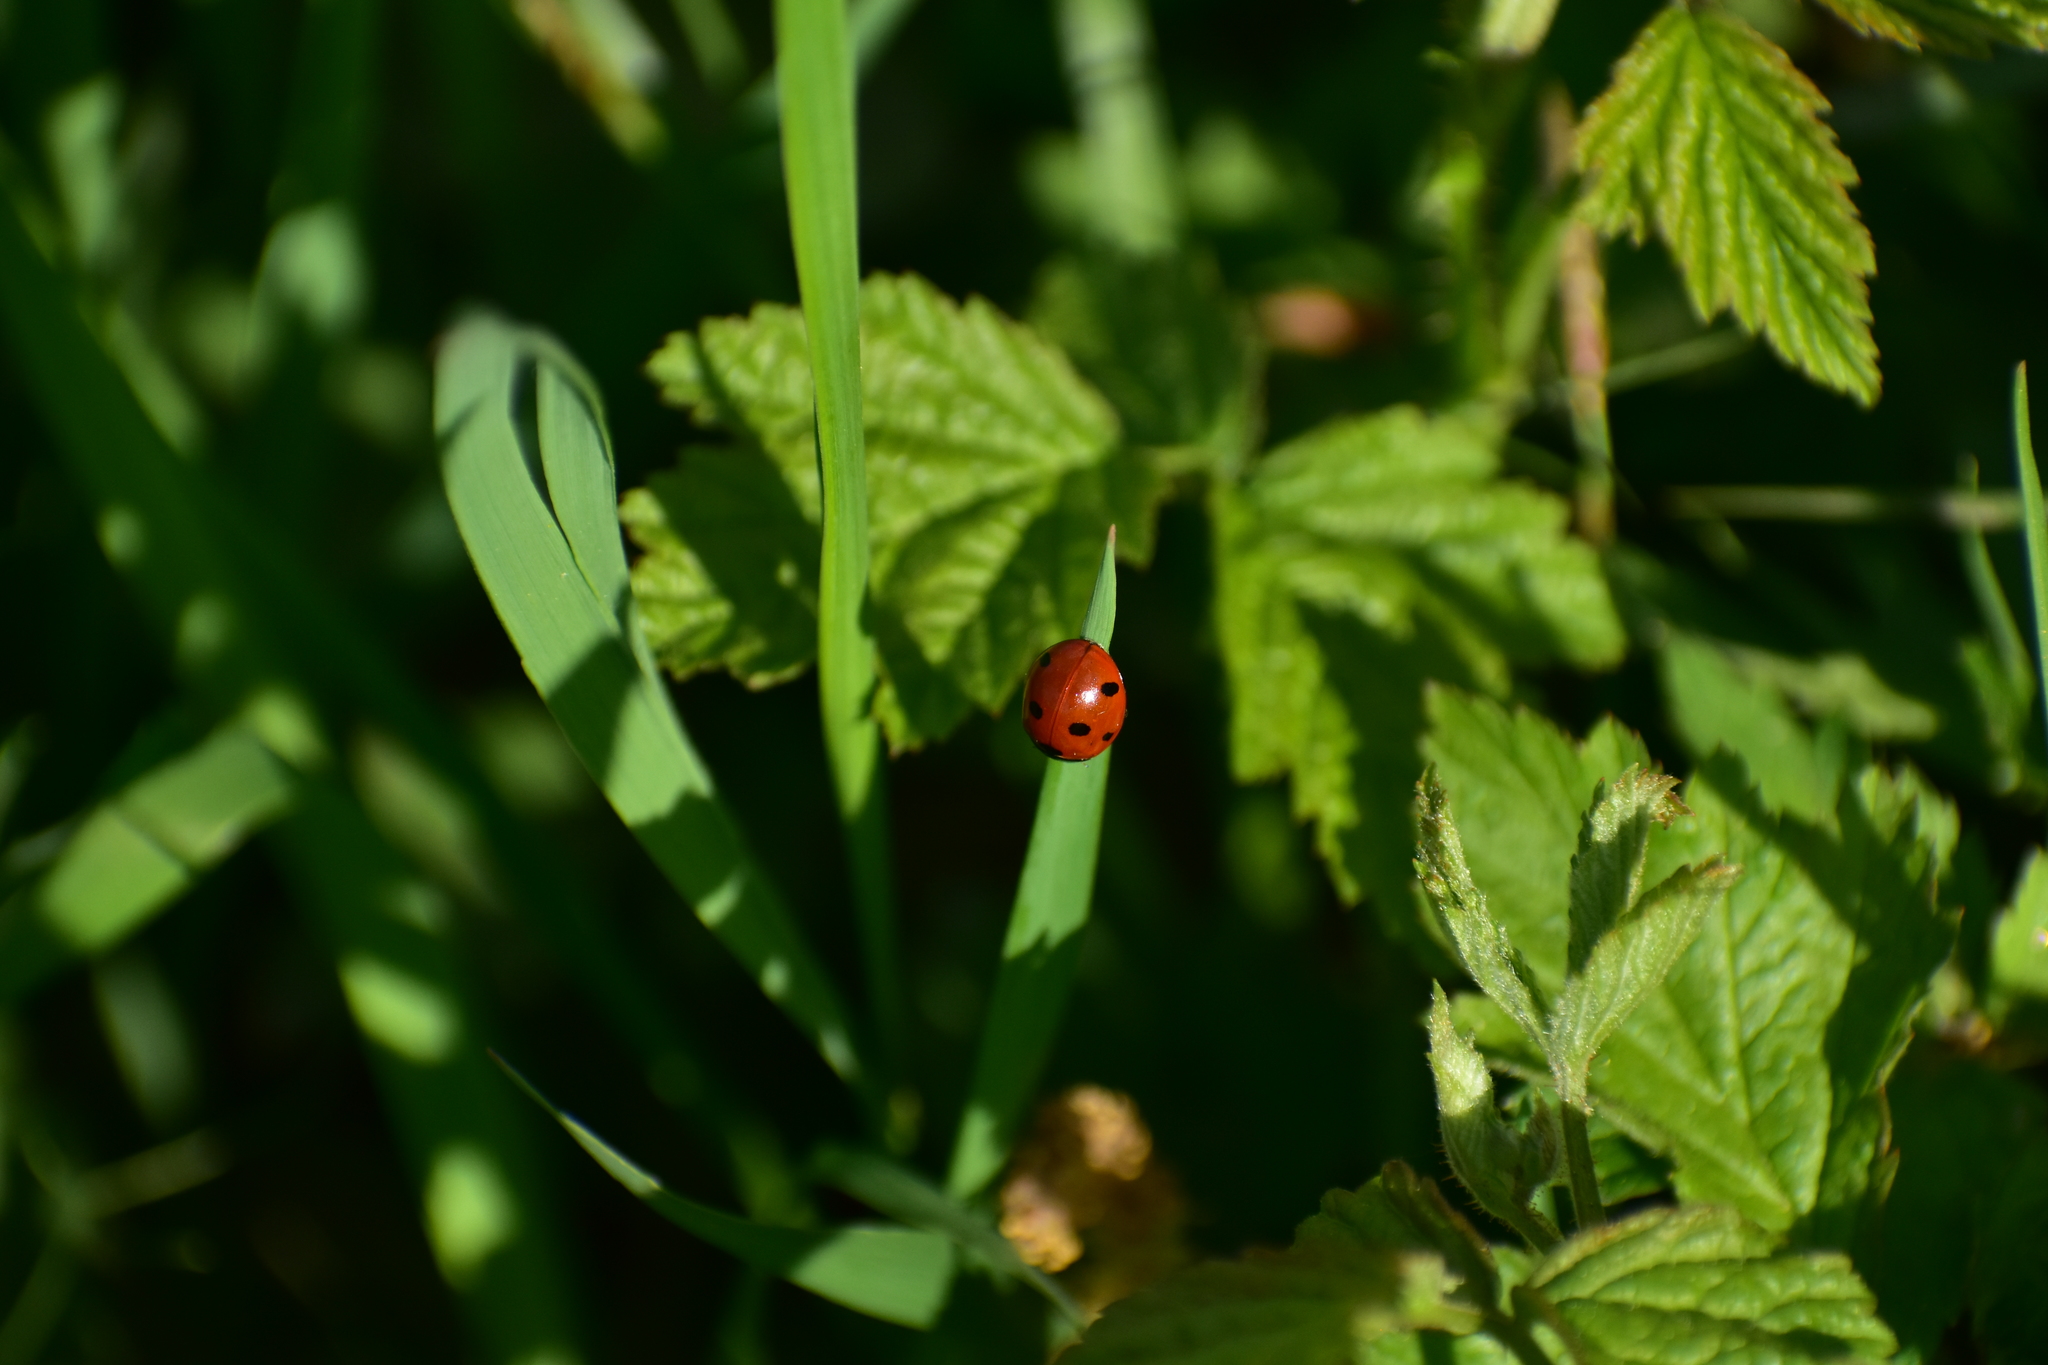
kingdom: Animalia
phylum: Arthropoda
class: Insecta
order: Coleoptera
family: Coccinellidae
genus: Coccinella
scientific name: Coccinella septempunctata
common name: Sevenspotted lady beetle
